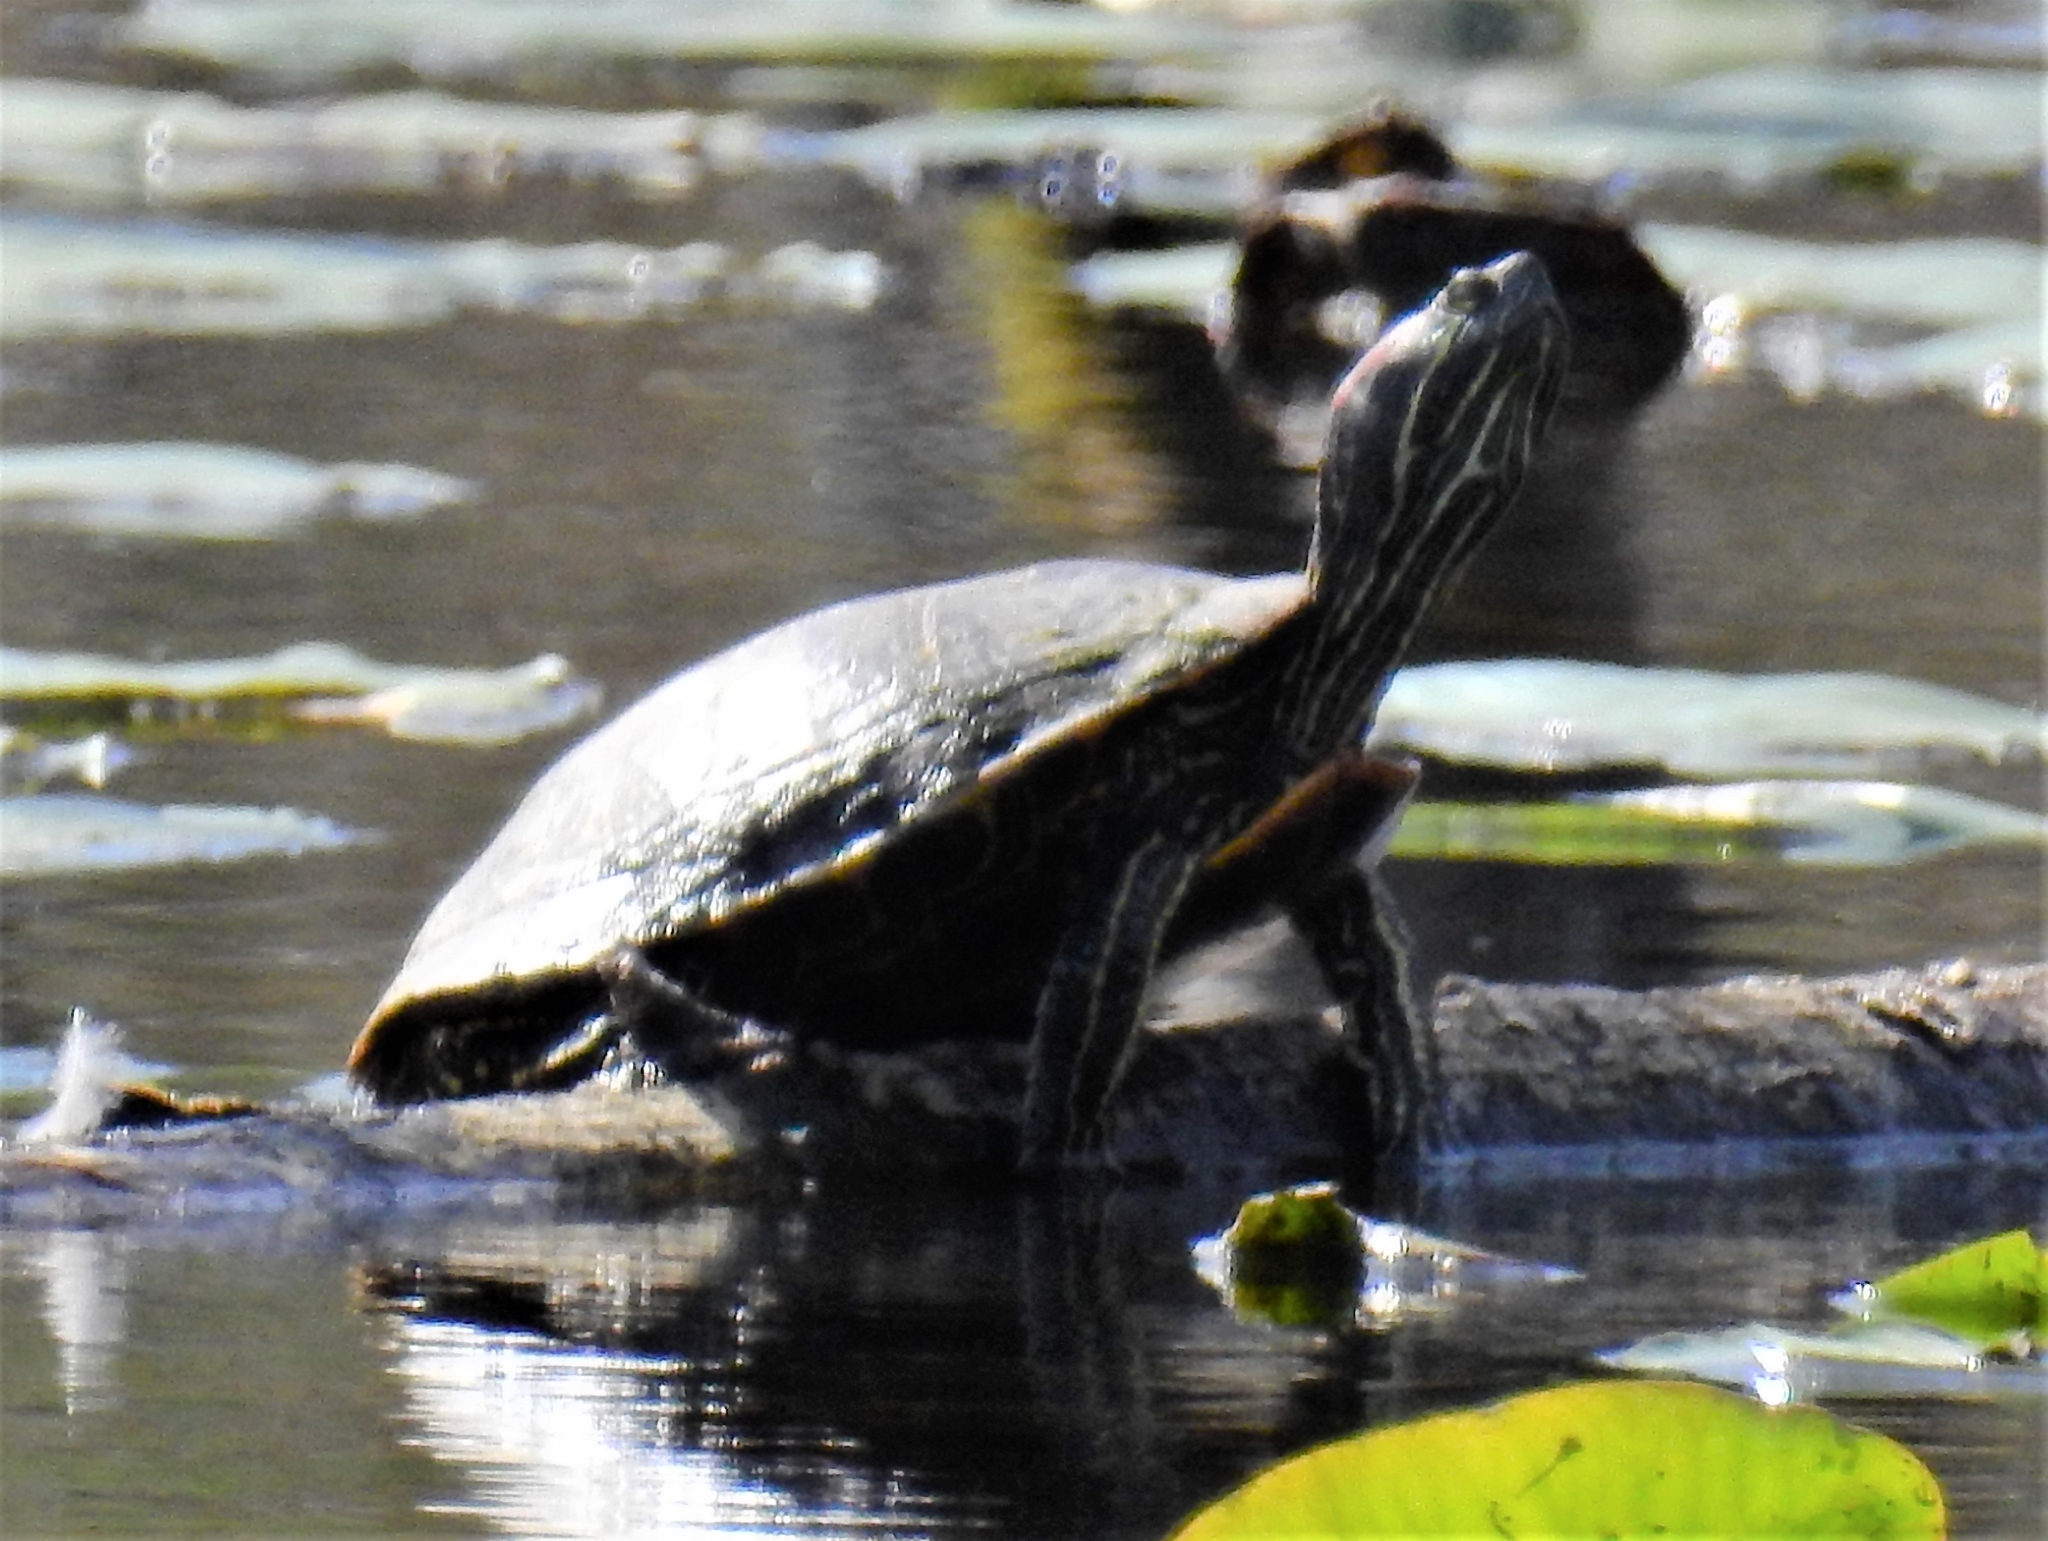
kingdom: Animalia
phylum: Chordata
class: Testudines
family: Emydidae
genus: Trachemys
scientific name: Trachemys scripta
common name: Slider
